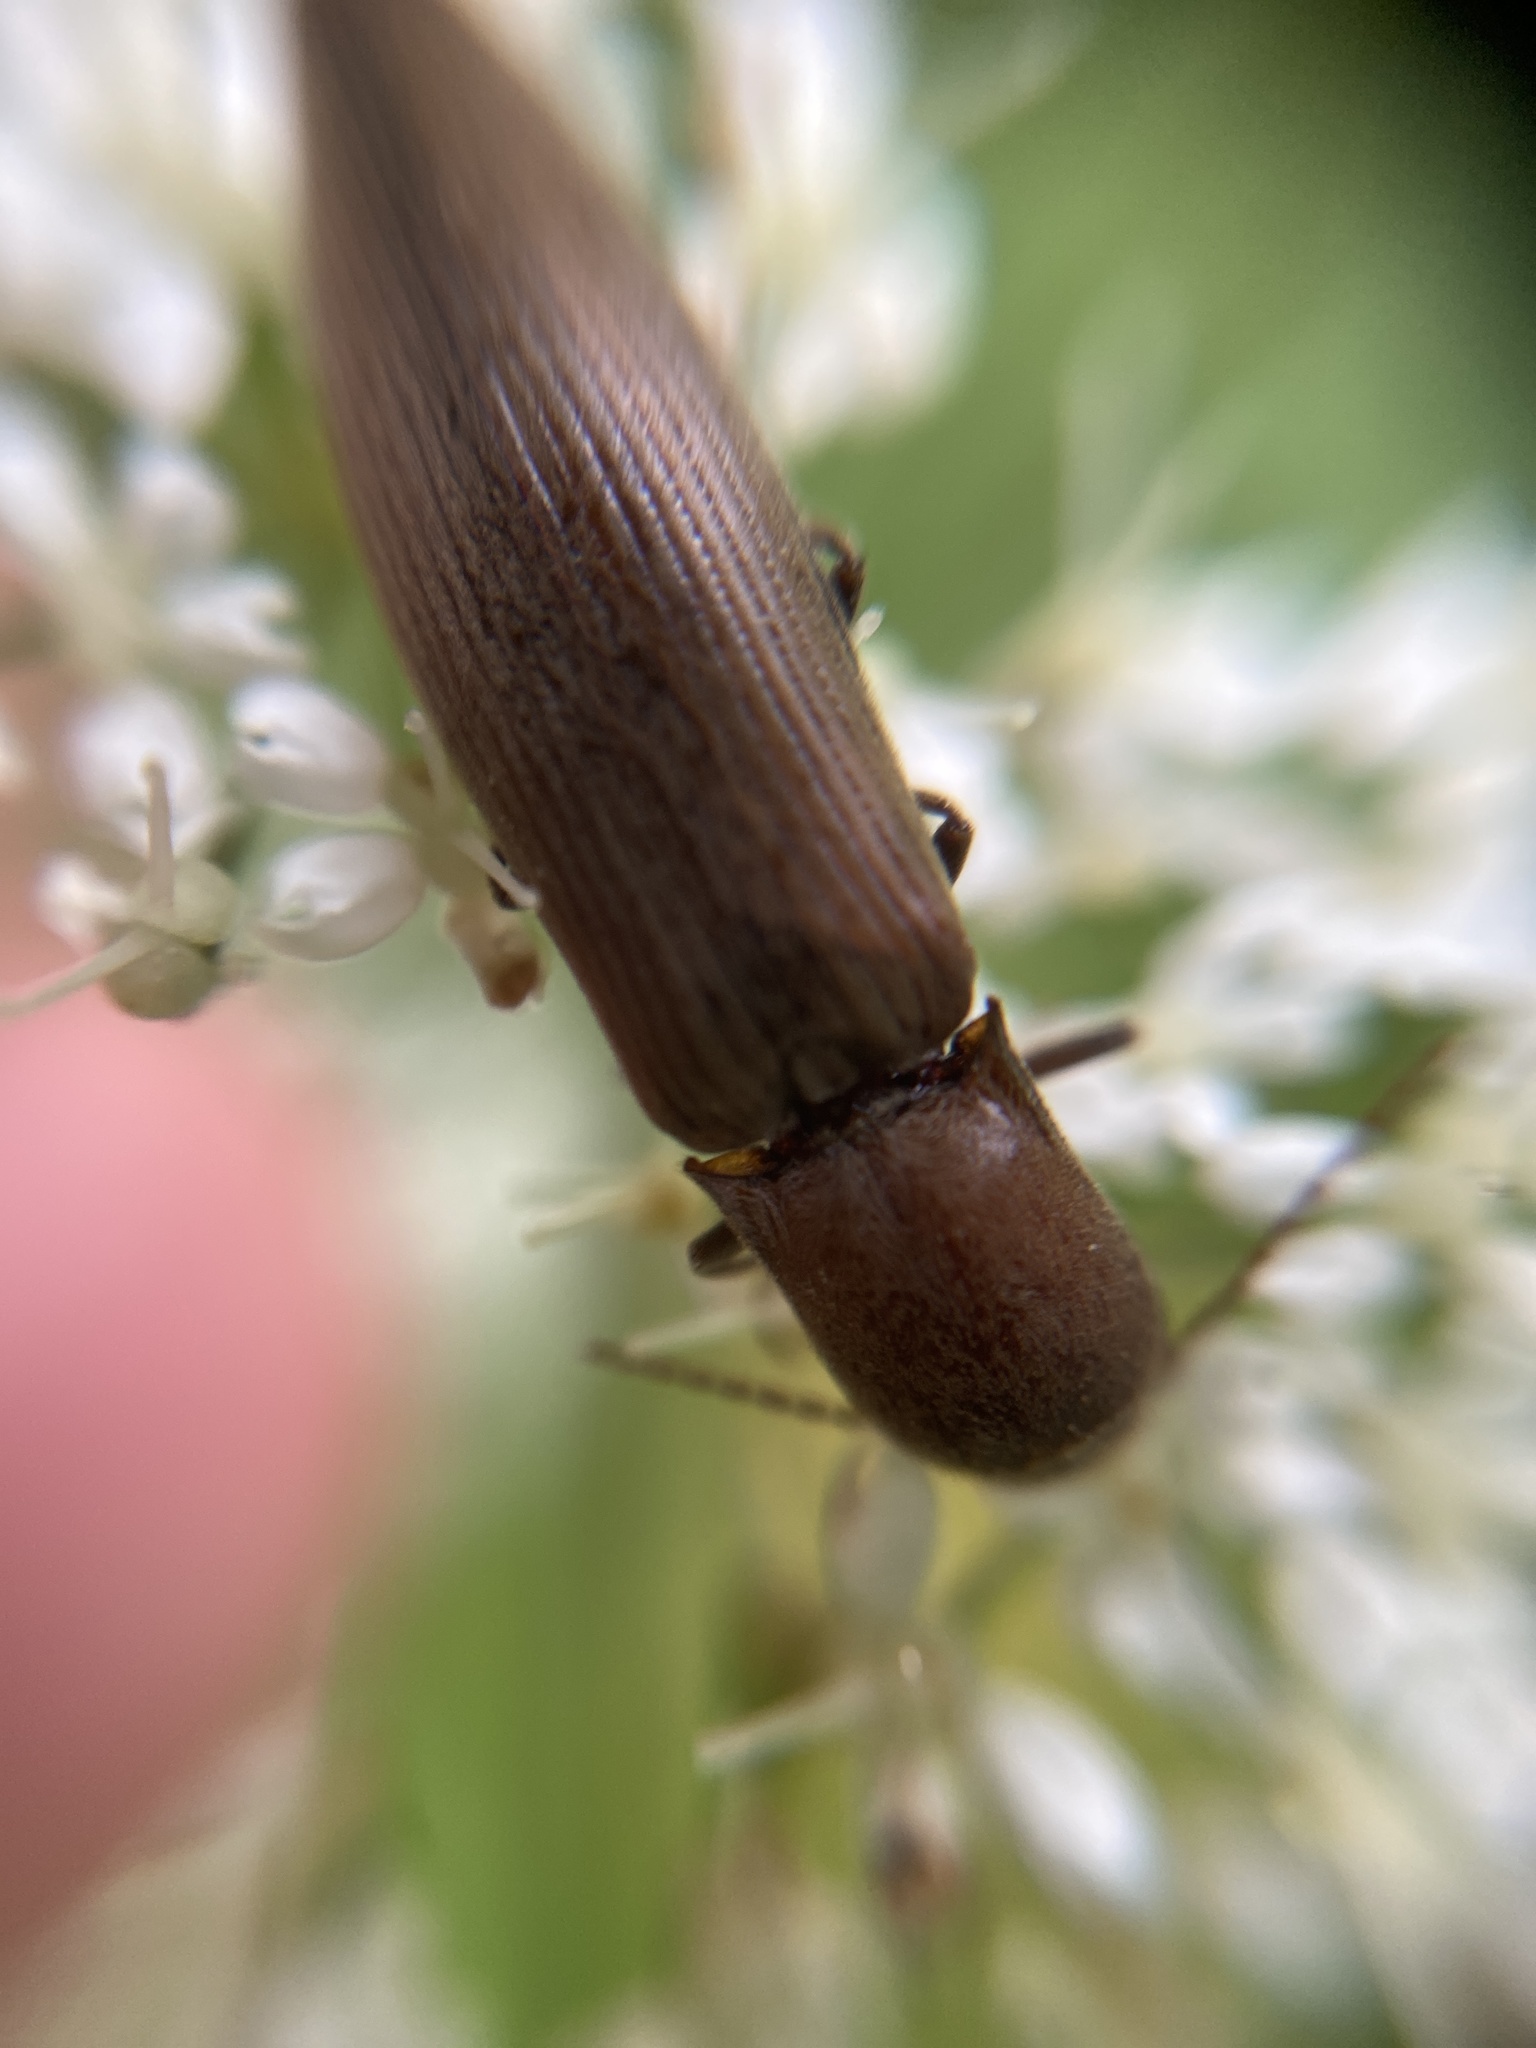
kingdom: Animalia
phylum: Arthropoda
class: Insecta
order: Coleoptera
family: Elateridae
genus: Agriotes
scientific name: Agriotes pilosellus
